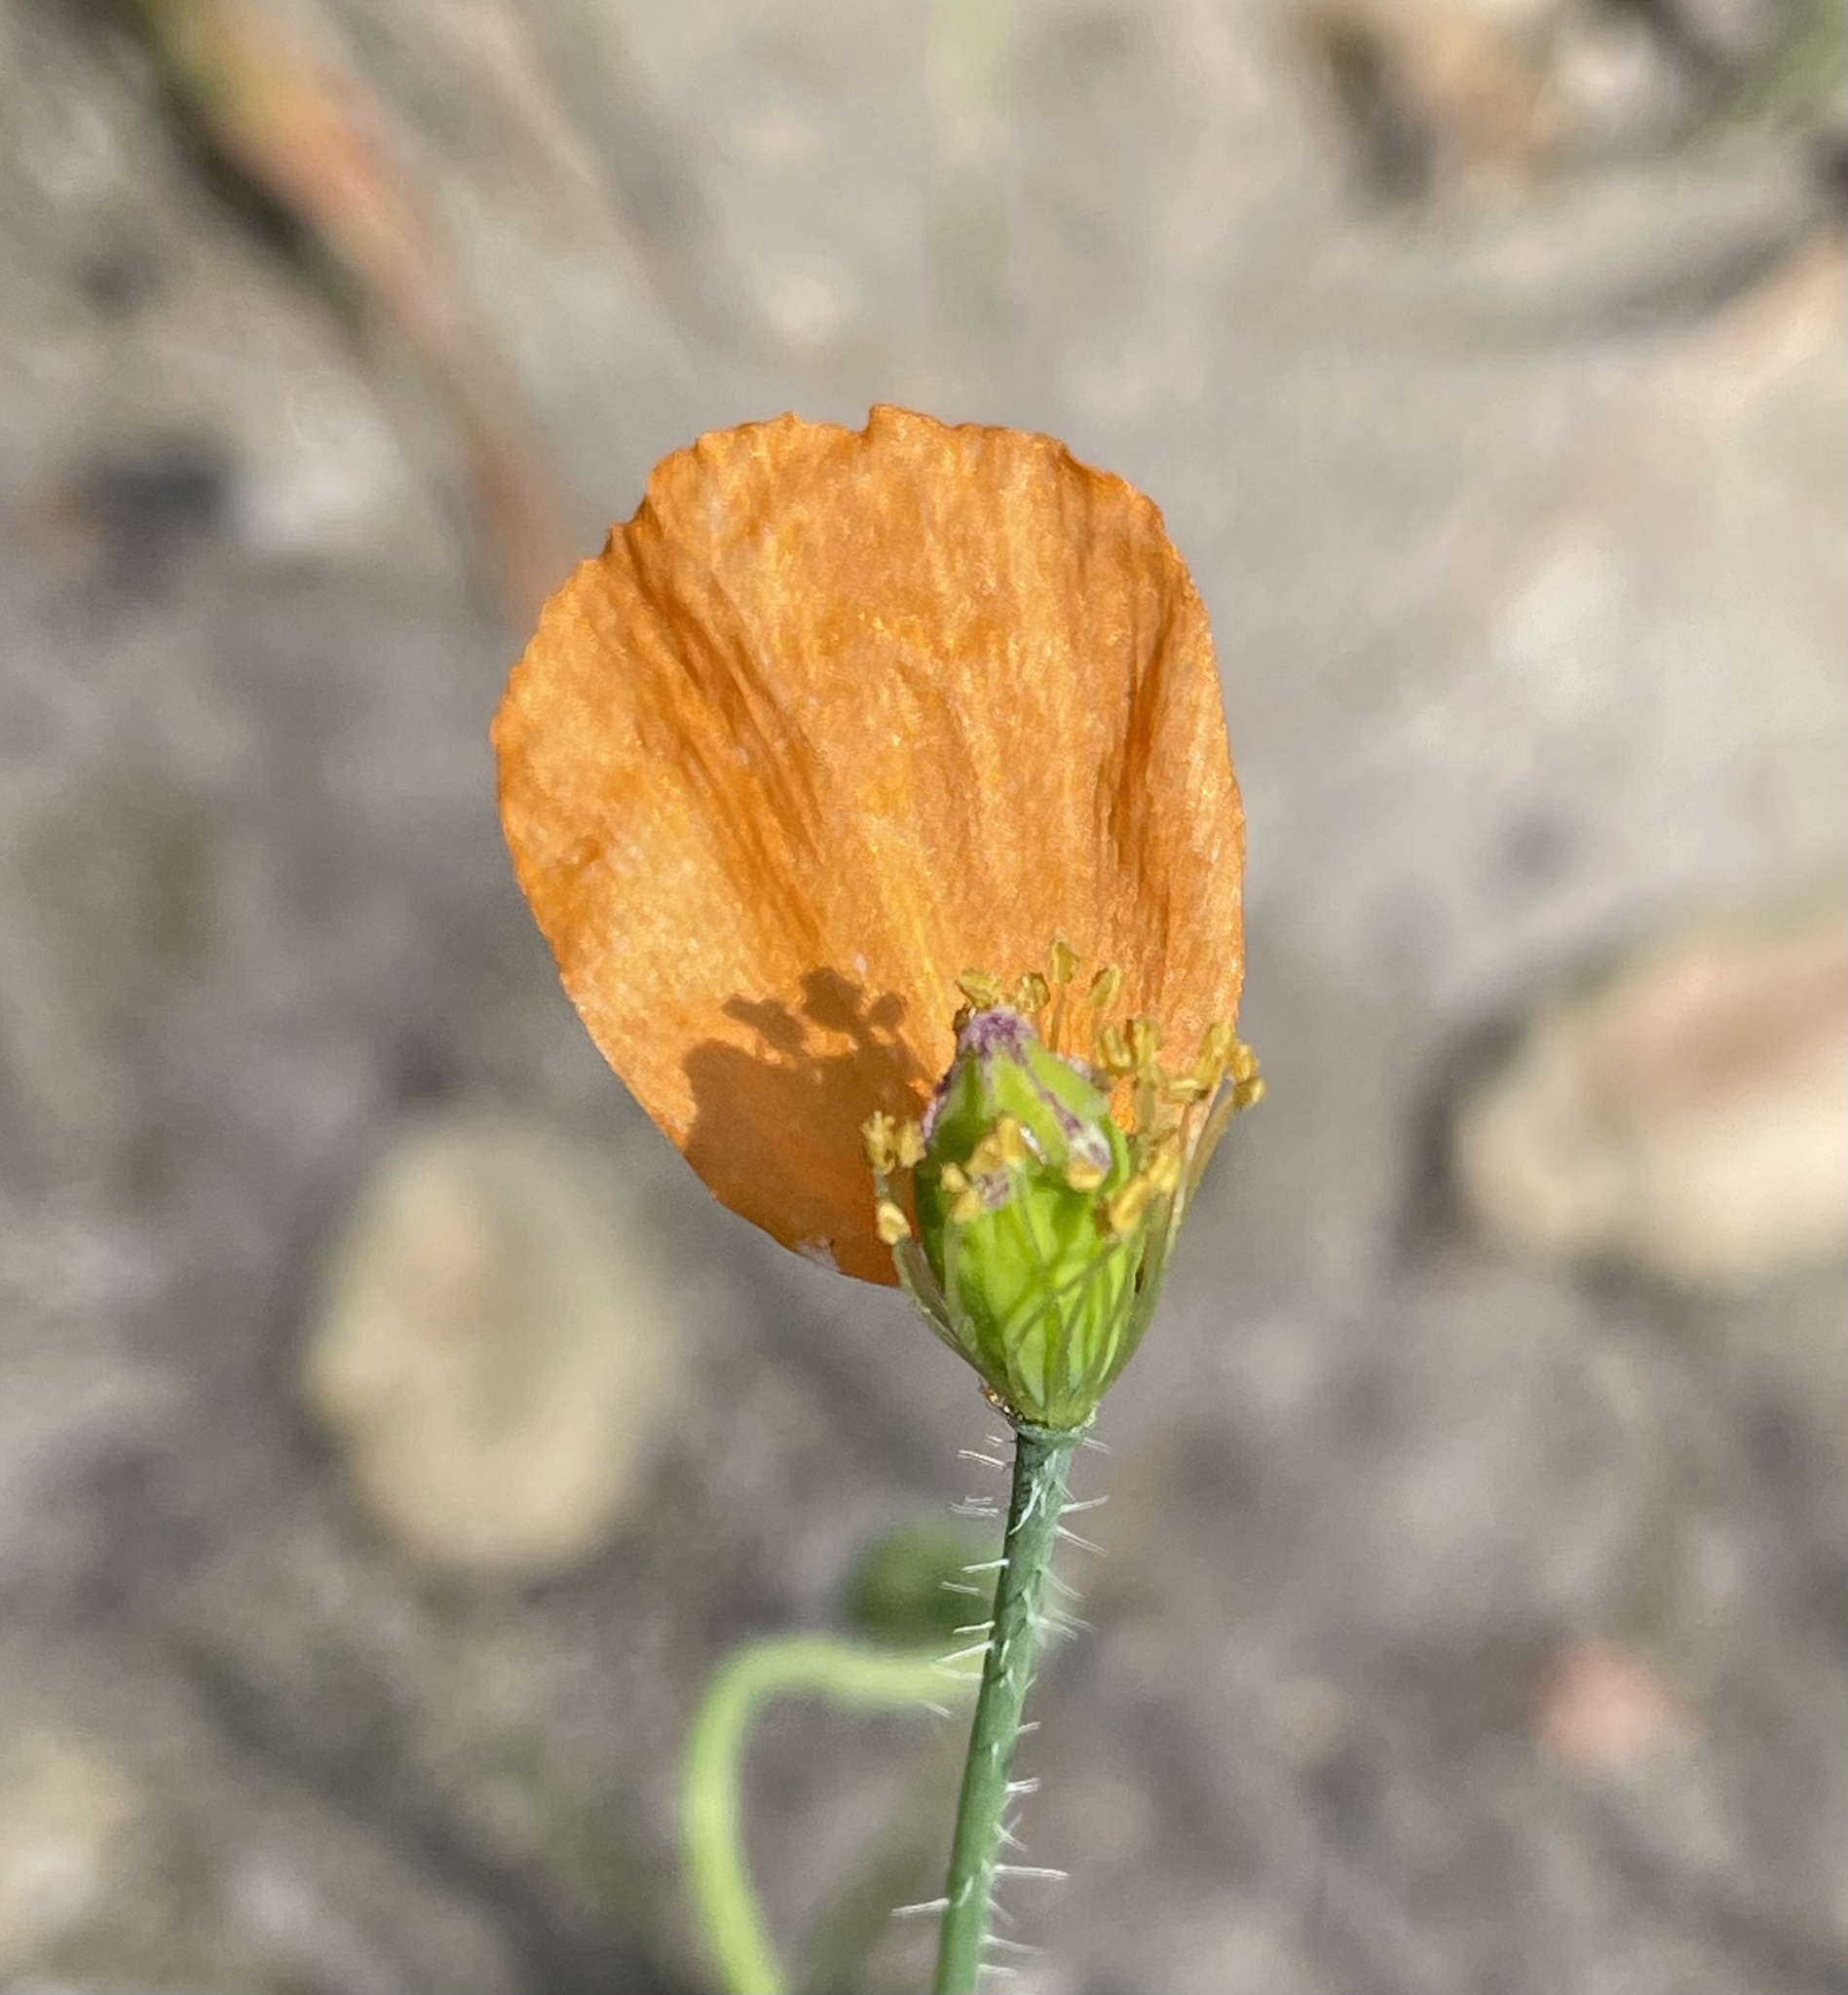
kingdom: Plantae
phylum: Tracheophyta
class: Magnoliopsida
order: Ranunculales
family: Papaveraceae
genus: Papaver
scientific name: Papaver californicum
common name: Fire poppy
